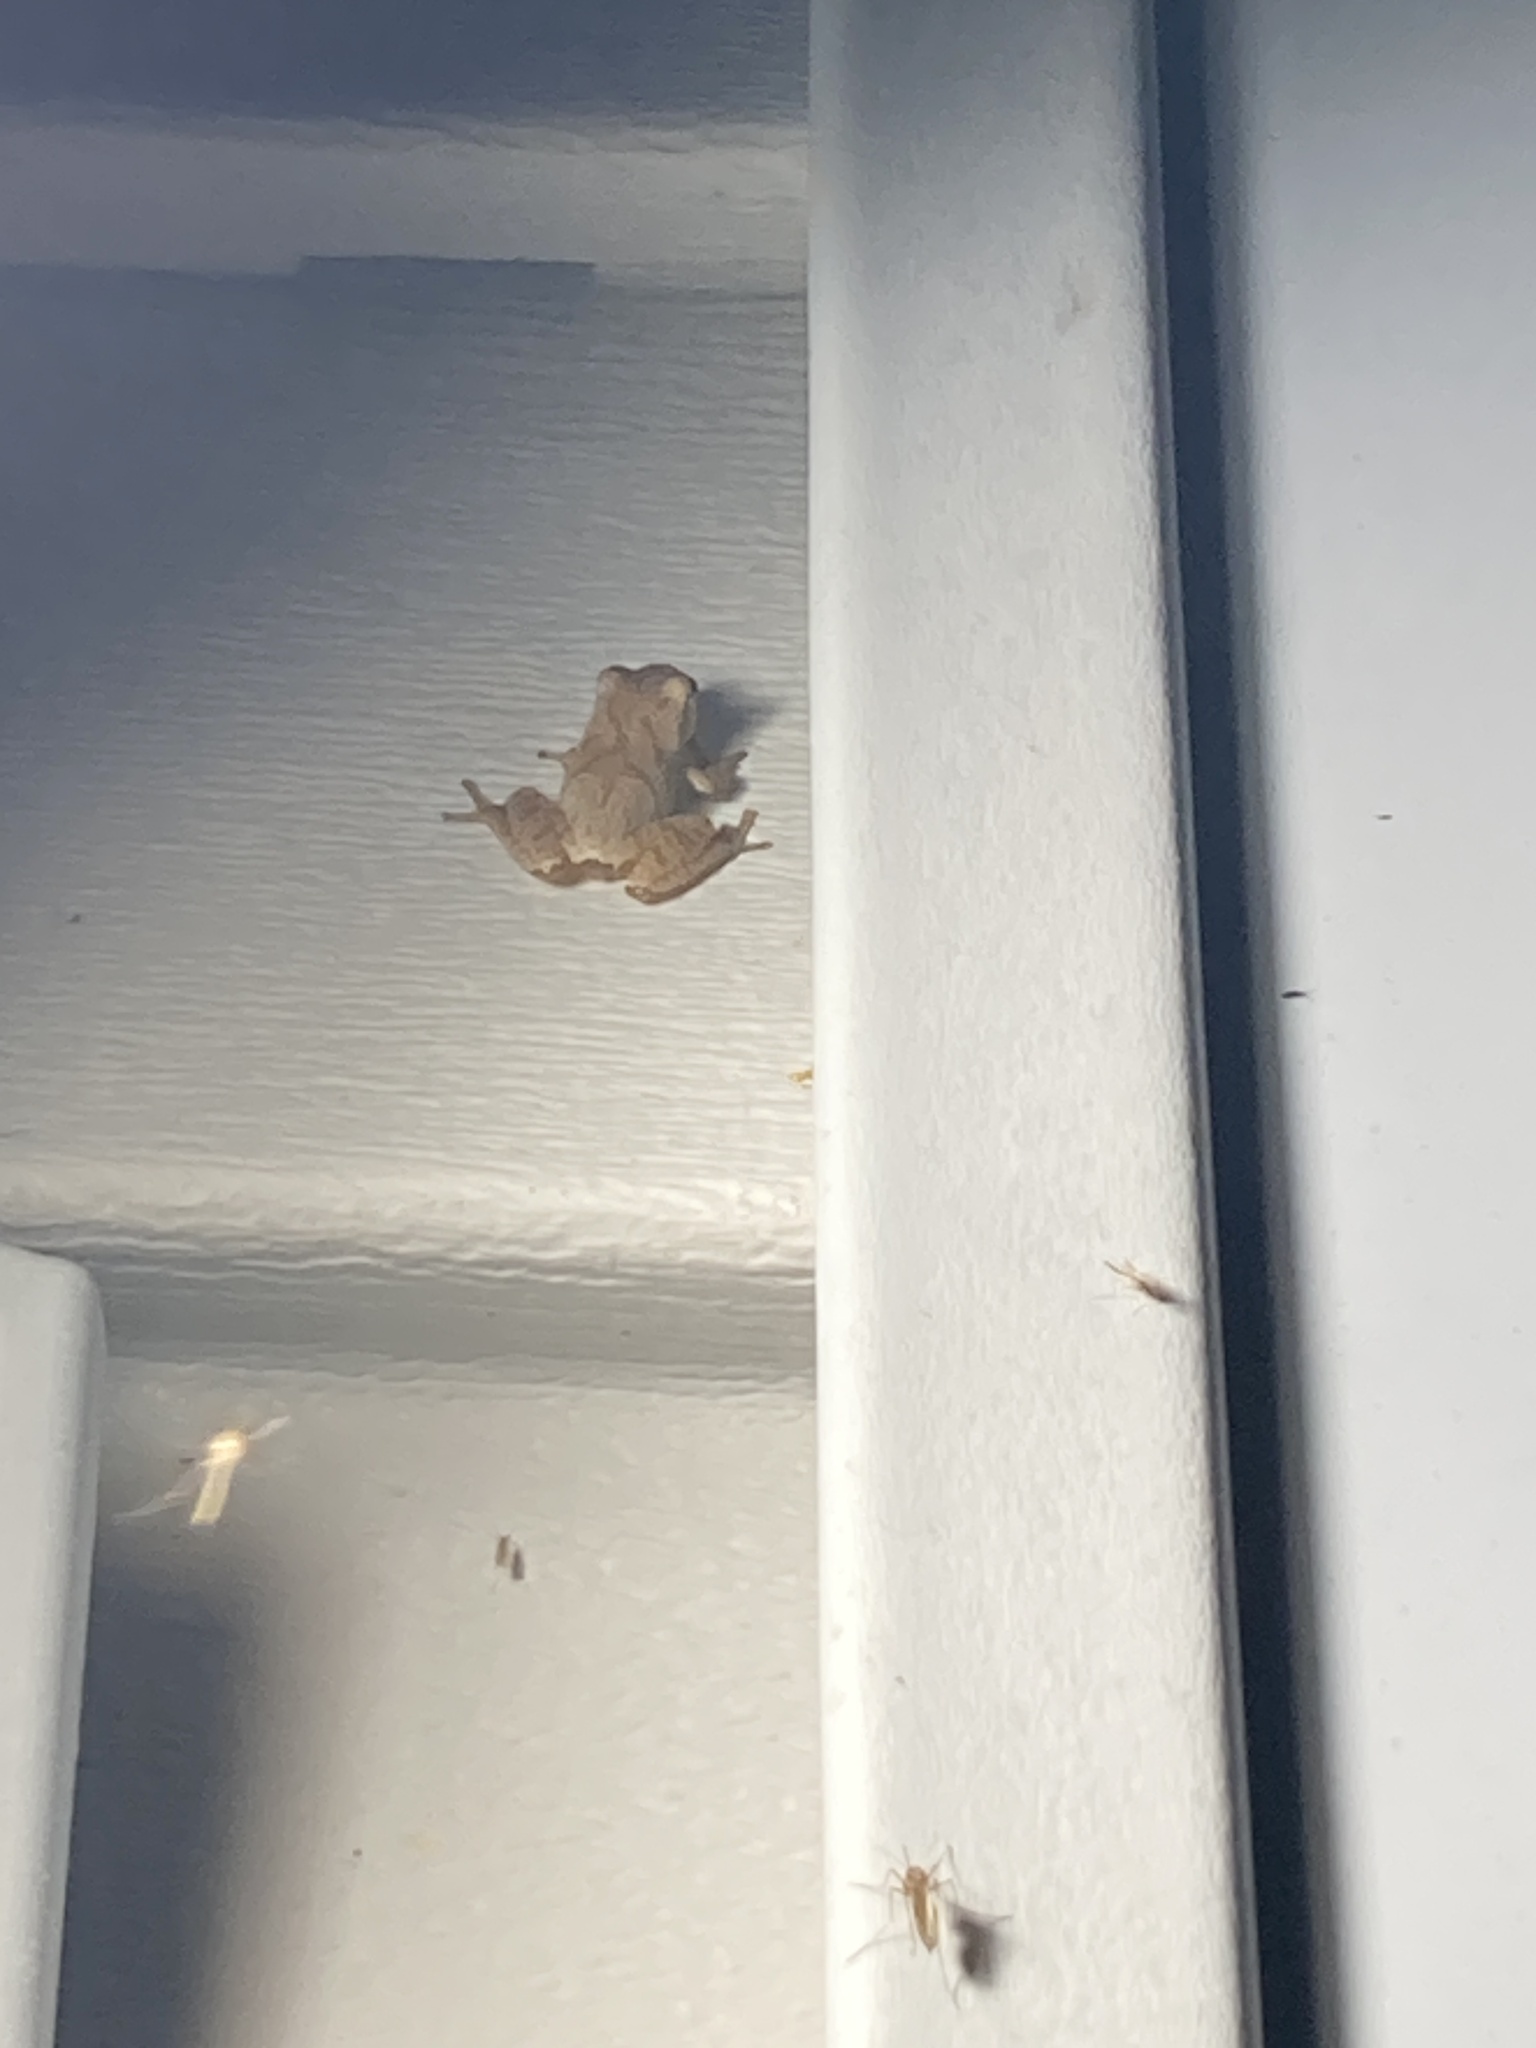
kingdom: Animalia
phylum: Chordata
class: Amphibia
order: Anura
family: Hylidae
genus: Pseudacris
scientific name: Pseudacris crucifer
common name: Spring peeper
